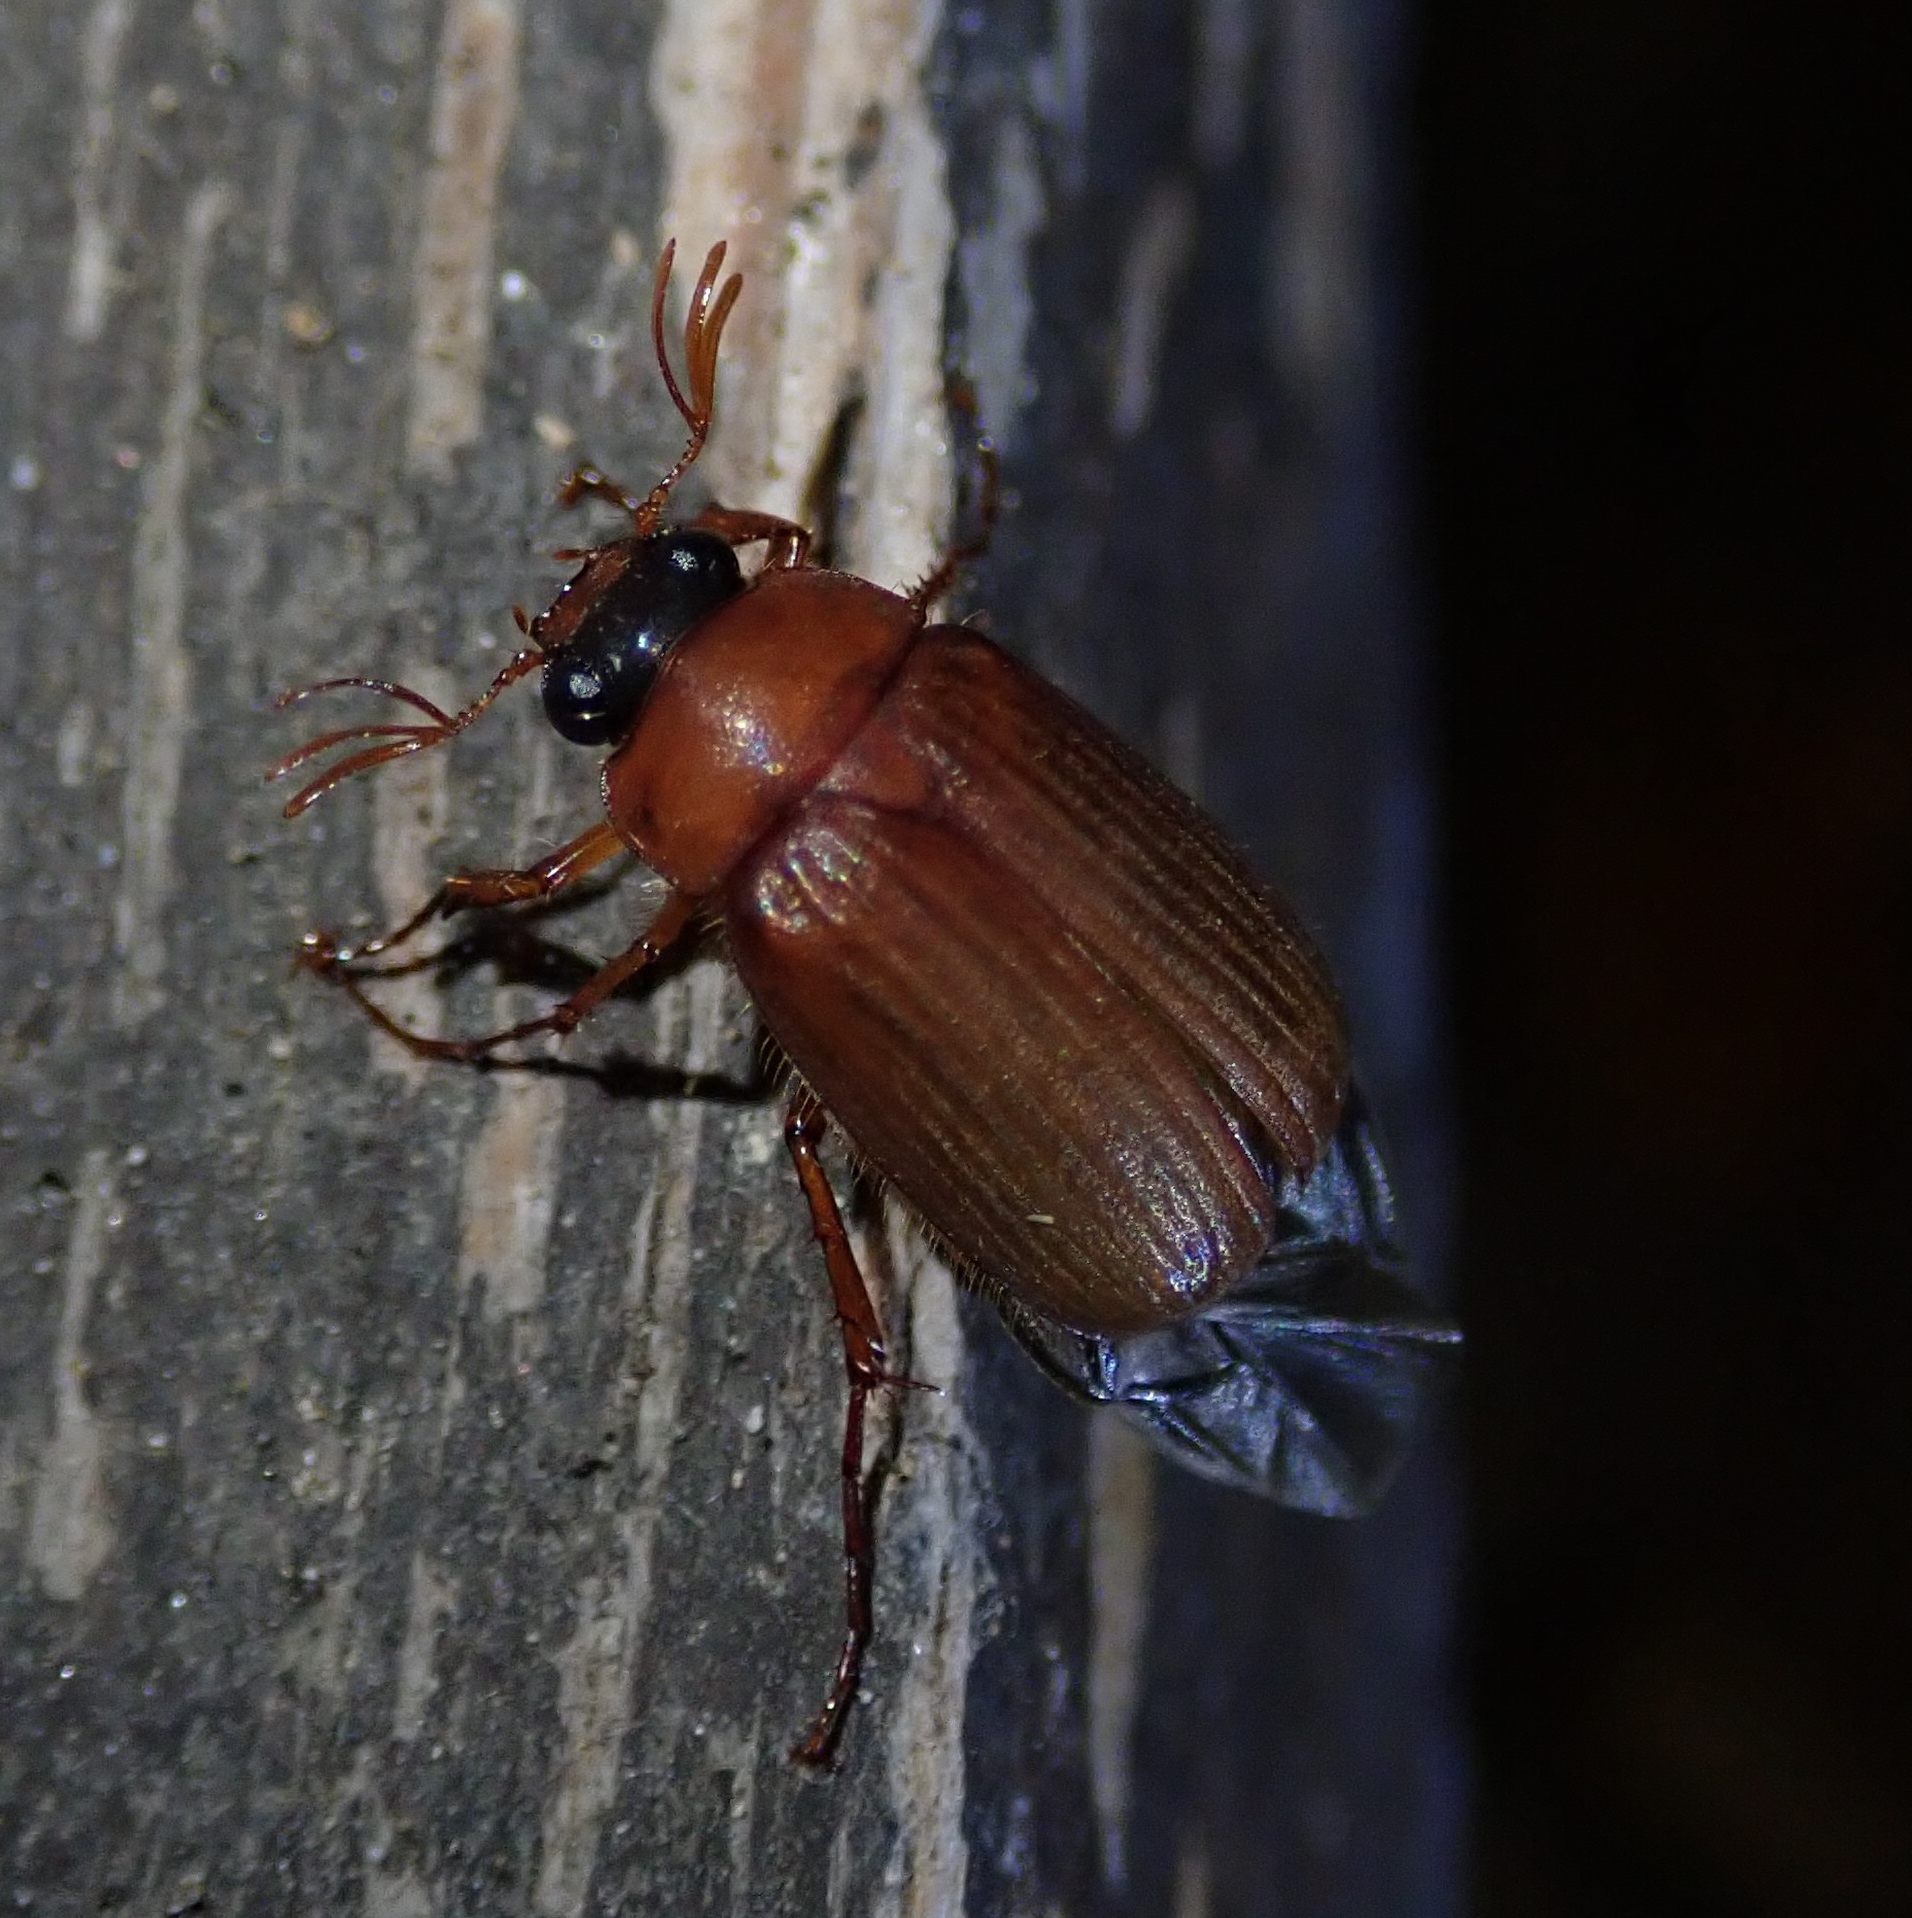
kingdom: Animalia
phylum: Arthropoda
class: Insecta
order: Coleoptera
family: Scarabaeidae
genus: Serica
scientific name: Serica brunnea
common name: Brown chafer
